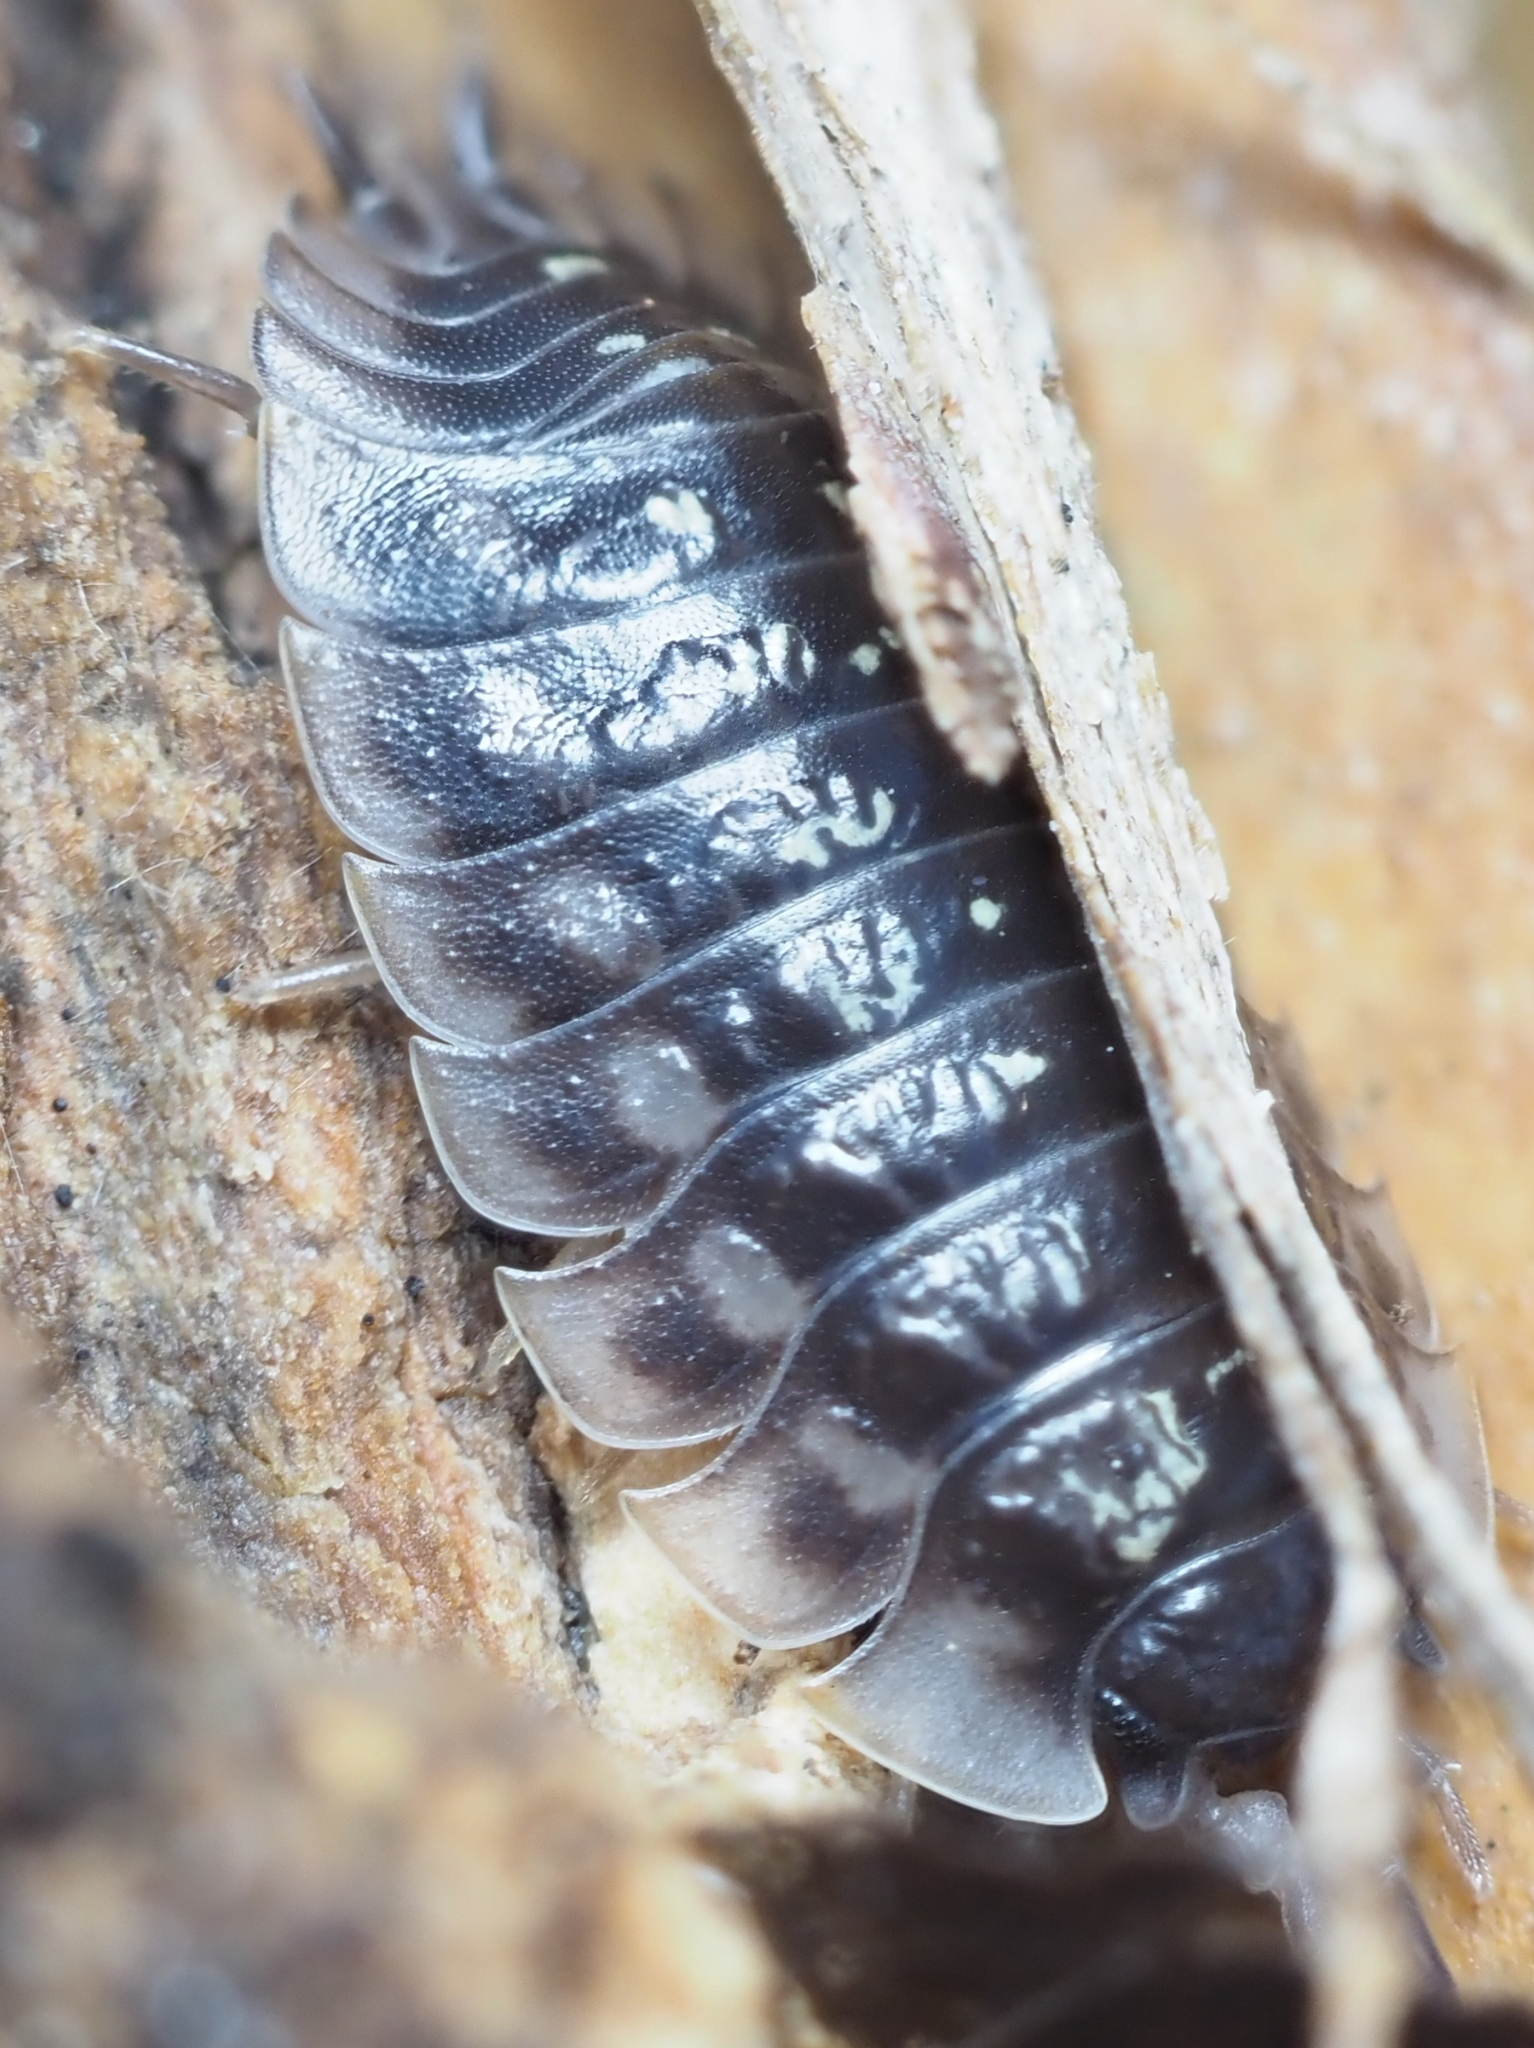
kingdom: Animalia
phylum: Arthropoda
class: Malacostraca
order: Isopoda
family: Oniscidae
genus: Oniscus
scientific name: Oniscus asellus
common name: Common shiny woodlouse
